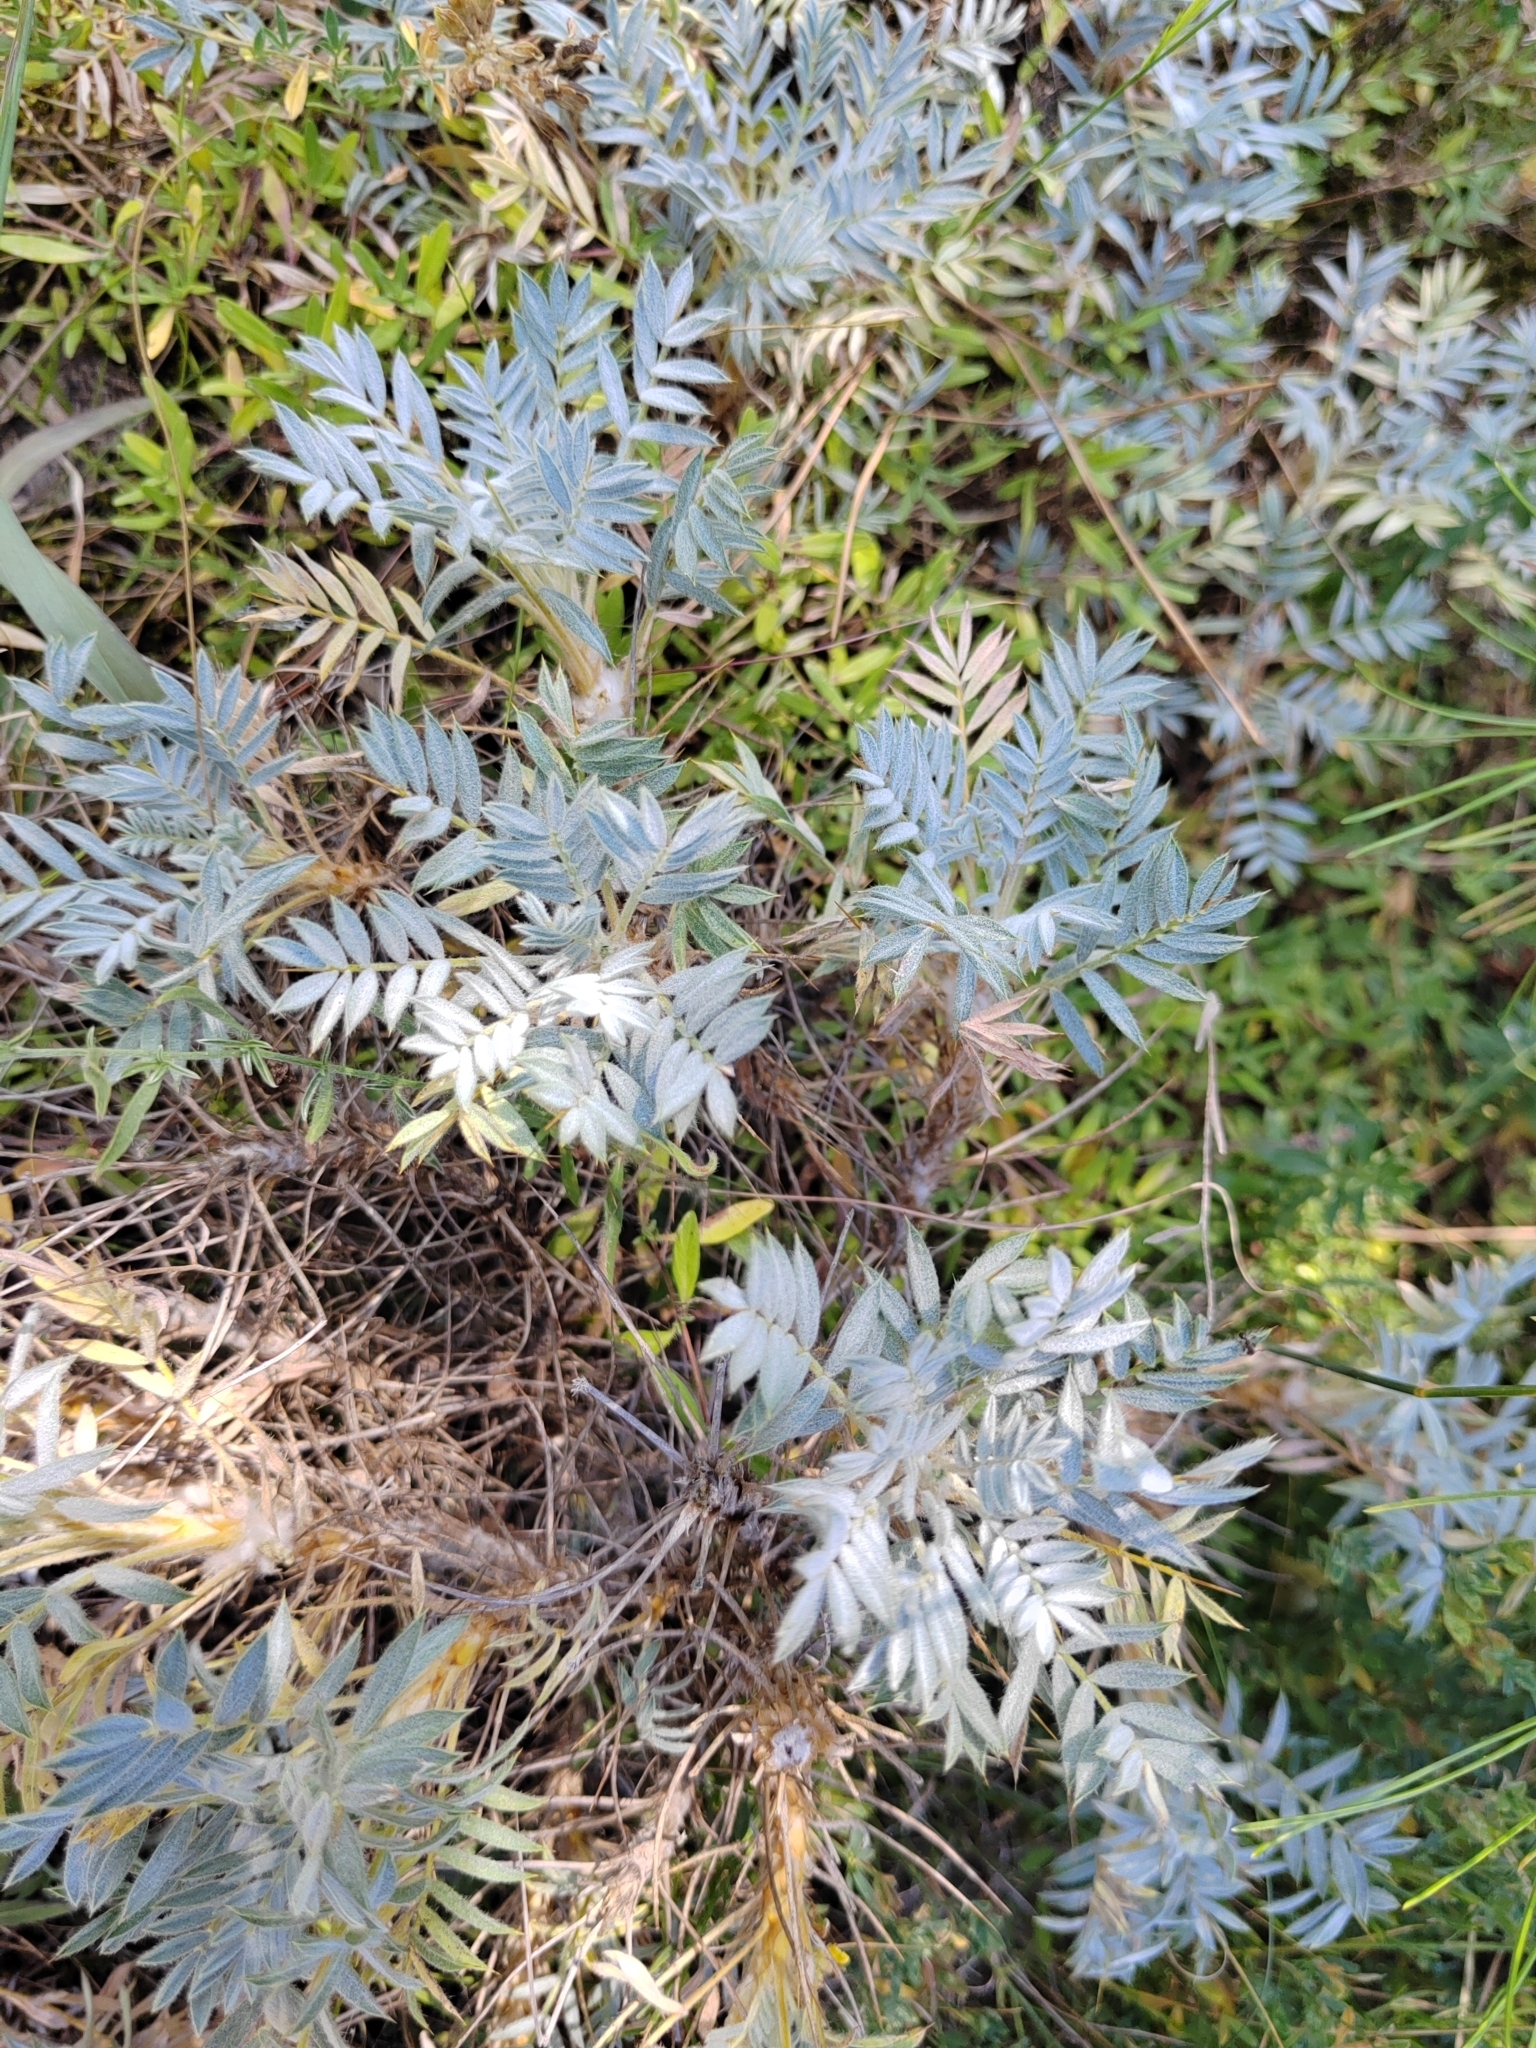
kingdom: Plantae
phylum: Tracheophyta
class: Magnoliopsida
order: Fabales
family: Fabaceae
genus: Astragalus
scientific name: Astragalus arnacanthoides
